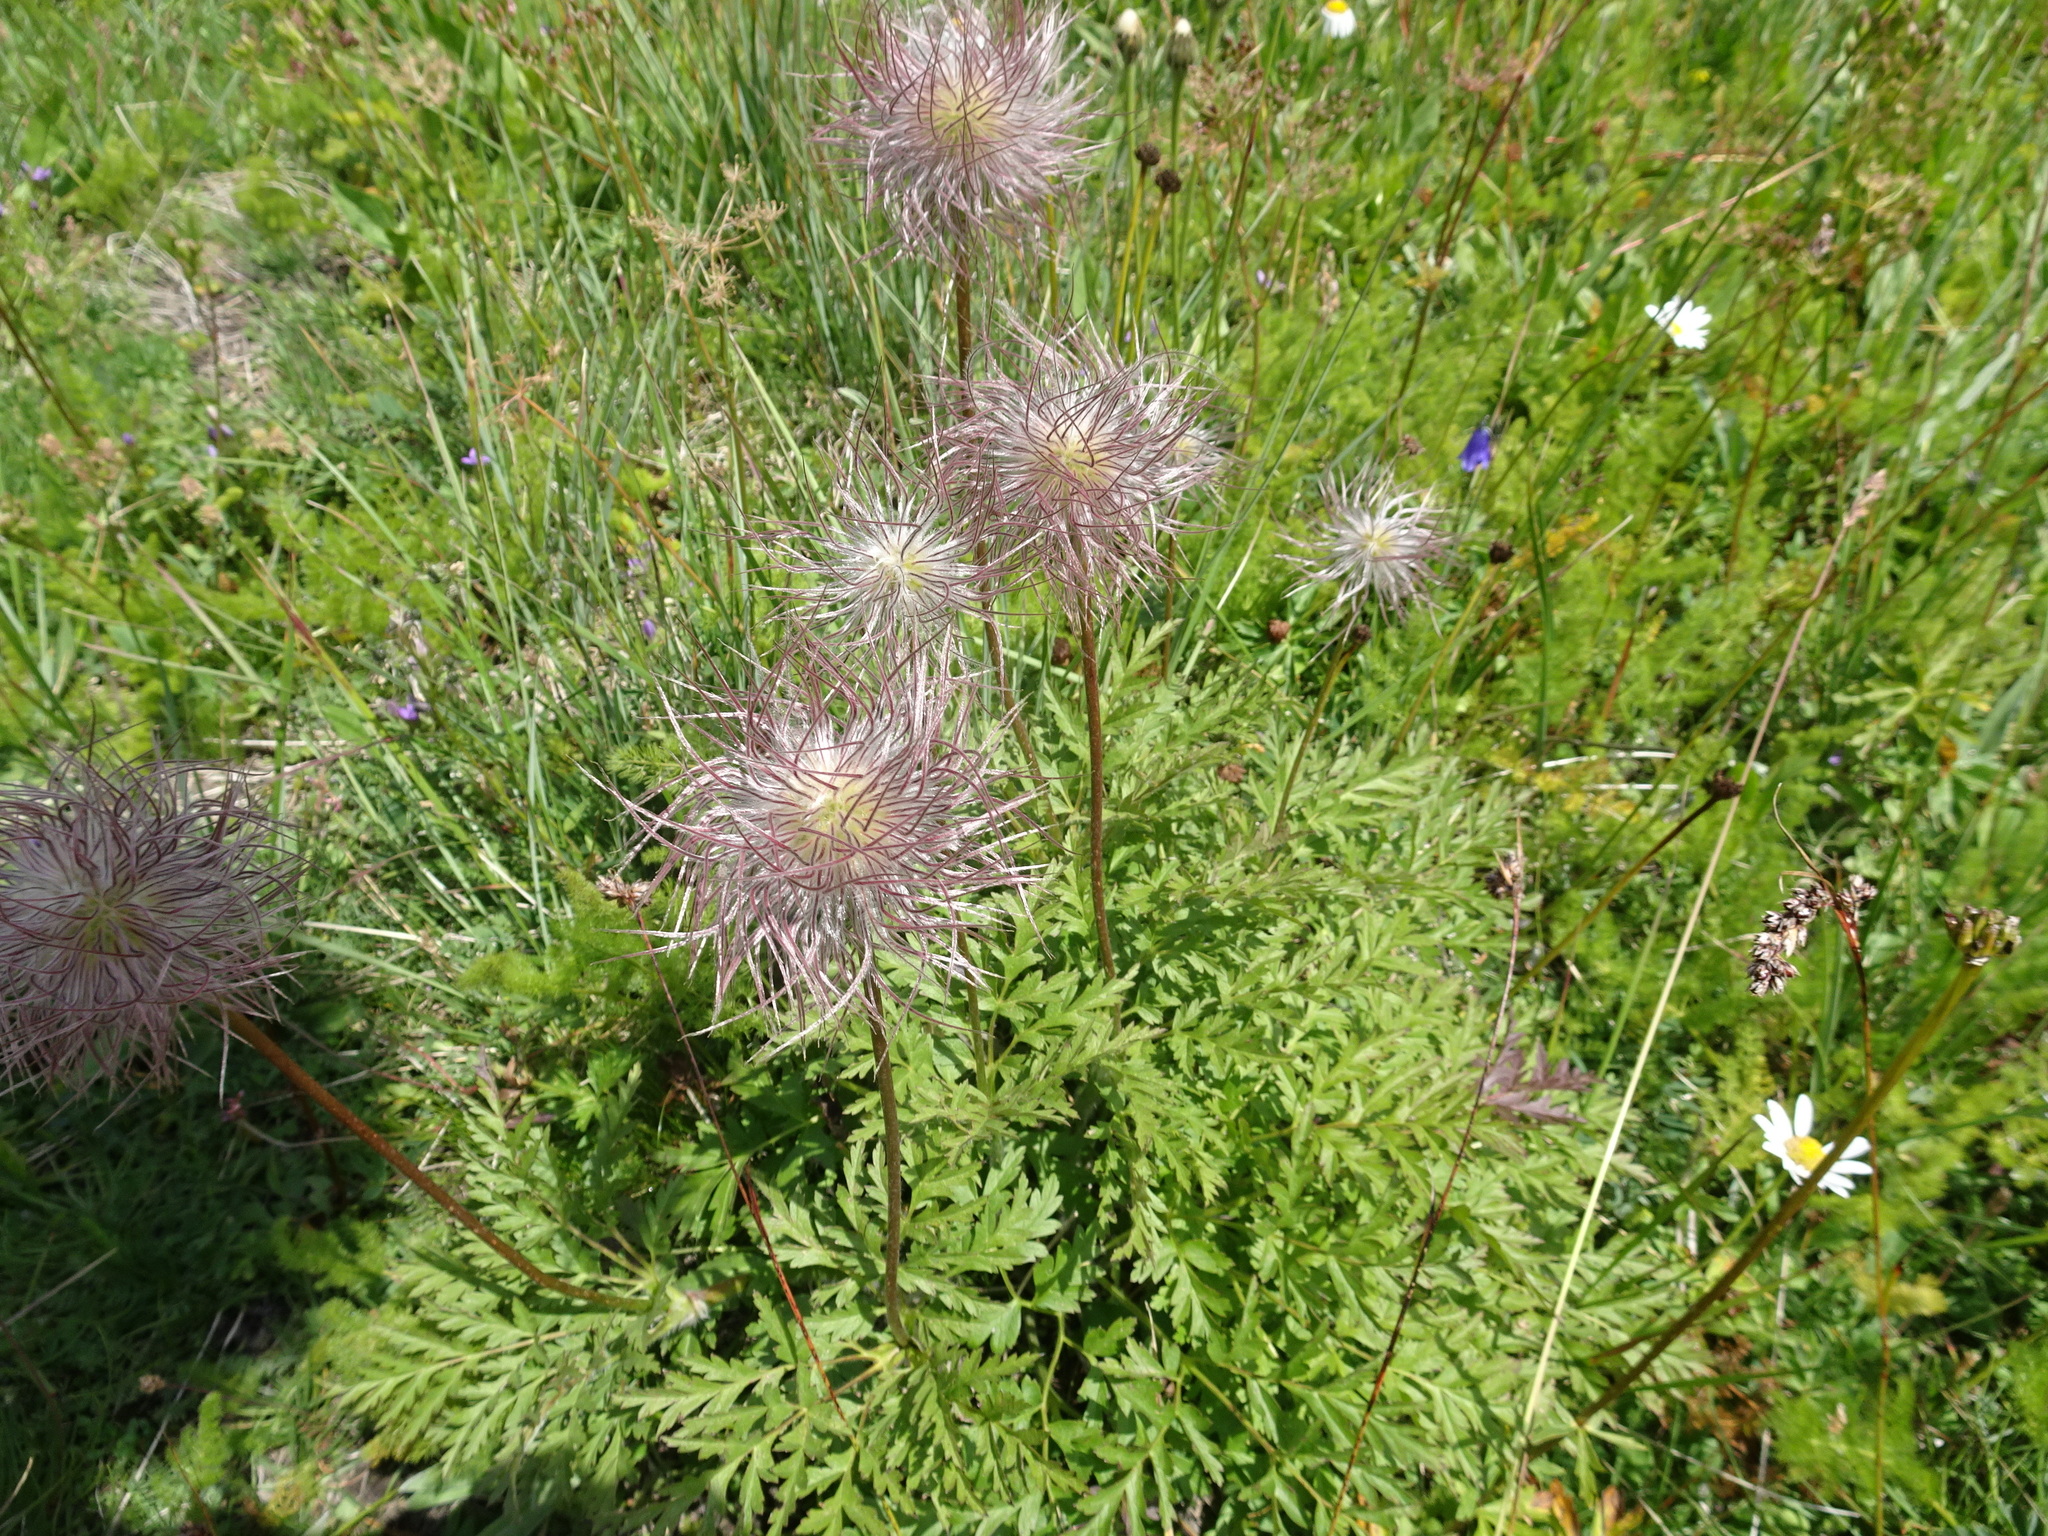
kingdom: Plantae
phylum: Tracheophyta
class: Magnoliopsida
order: Ranunculales
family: Ranunculaceae
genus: Pulsatilla
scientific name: Pulsatilla alpina
